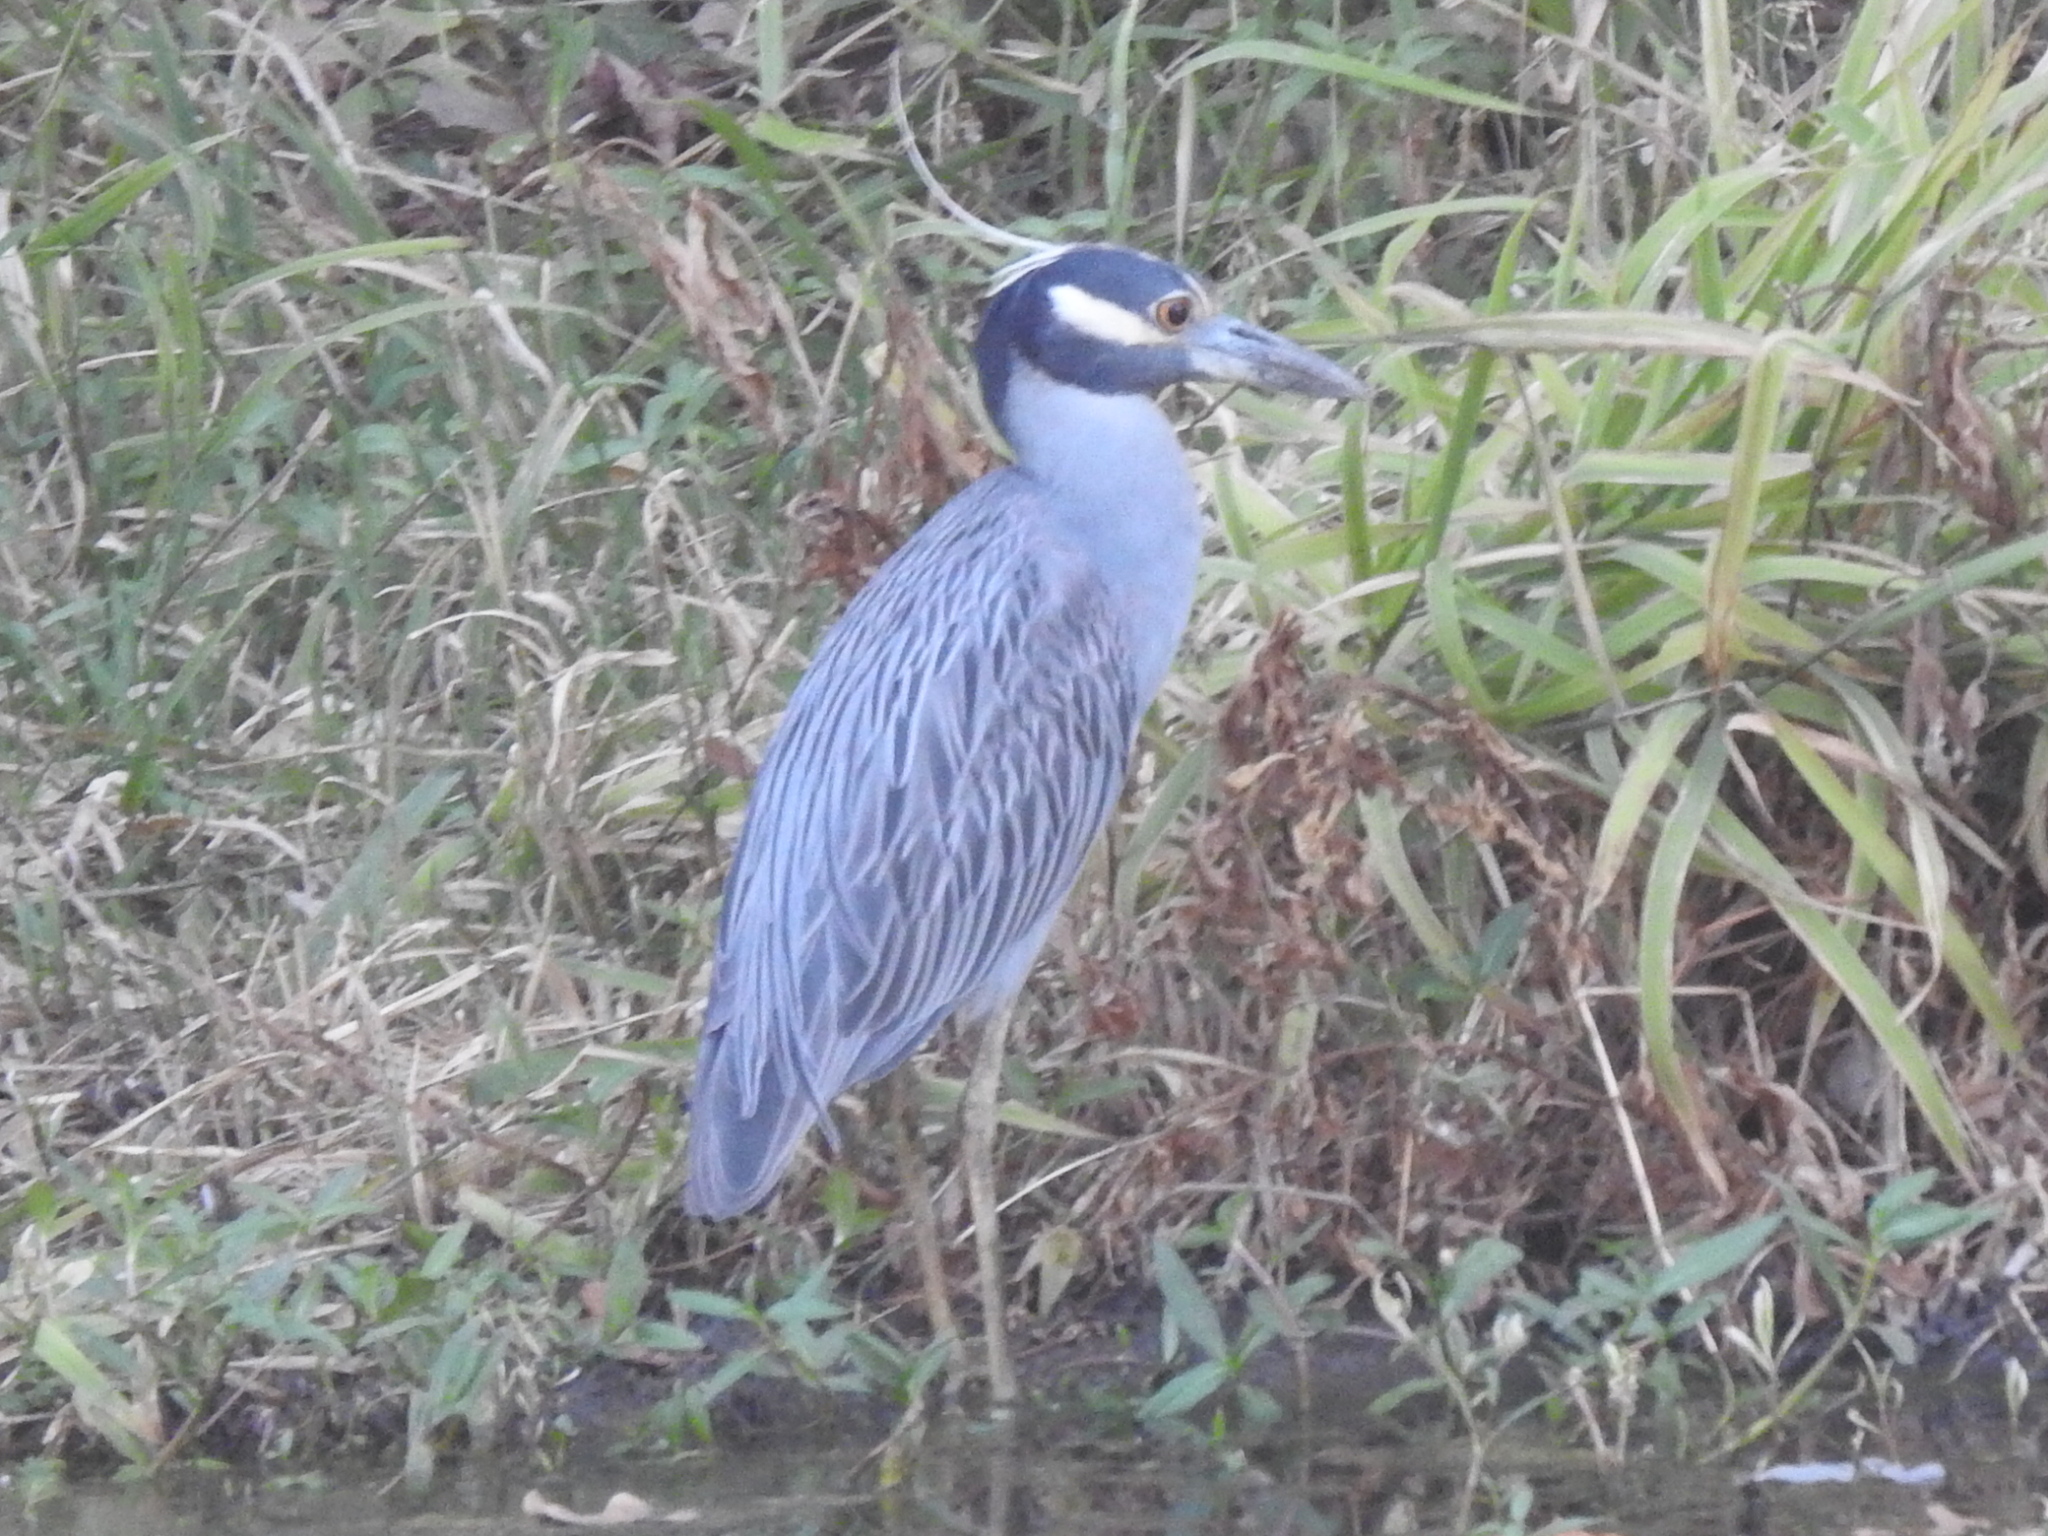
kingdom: Animalia
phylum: Chordata
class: Aves
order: Pelecaniformes
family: Ardeidae
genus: Nyctanassa
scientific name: Nyctanassa violacea
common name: Yellow-crowned night heron
